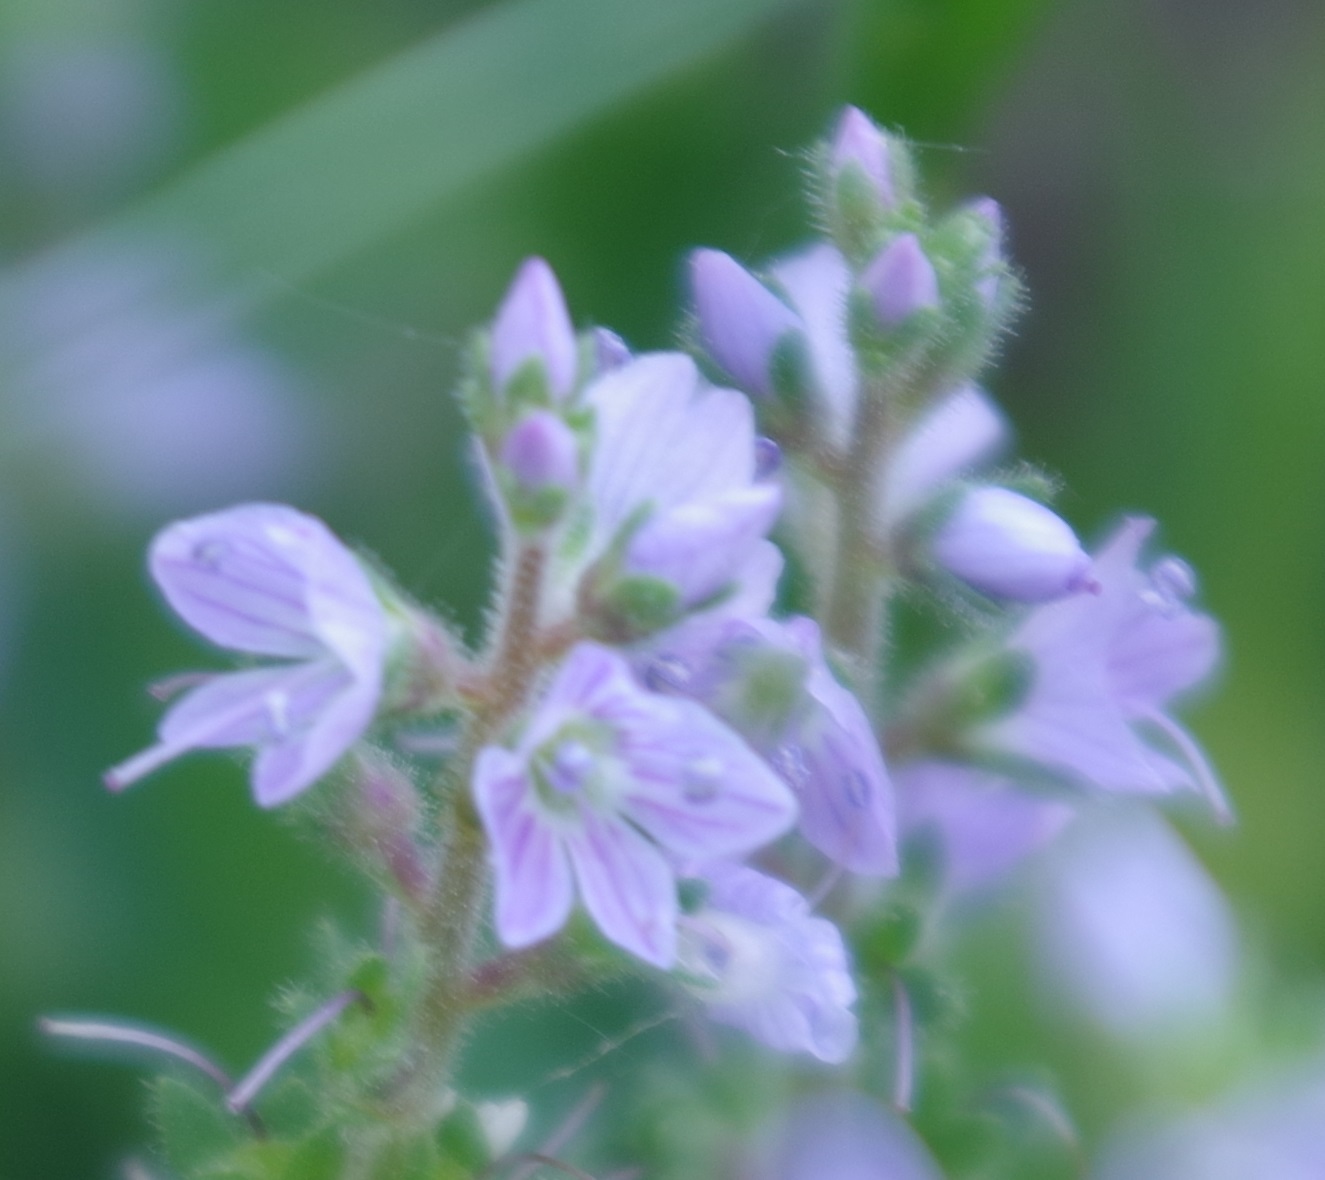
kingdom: Plantae
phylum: Tracheophyta
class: Magnoliopsida
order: Lamiales
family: Plantaginaceae
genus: Veronica
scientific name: Veronica officinalis
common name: Common speedwell
